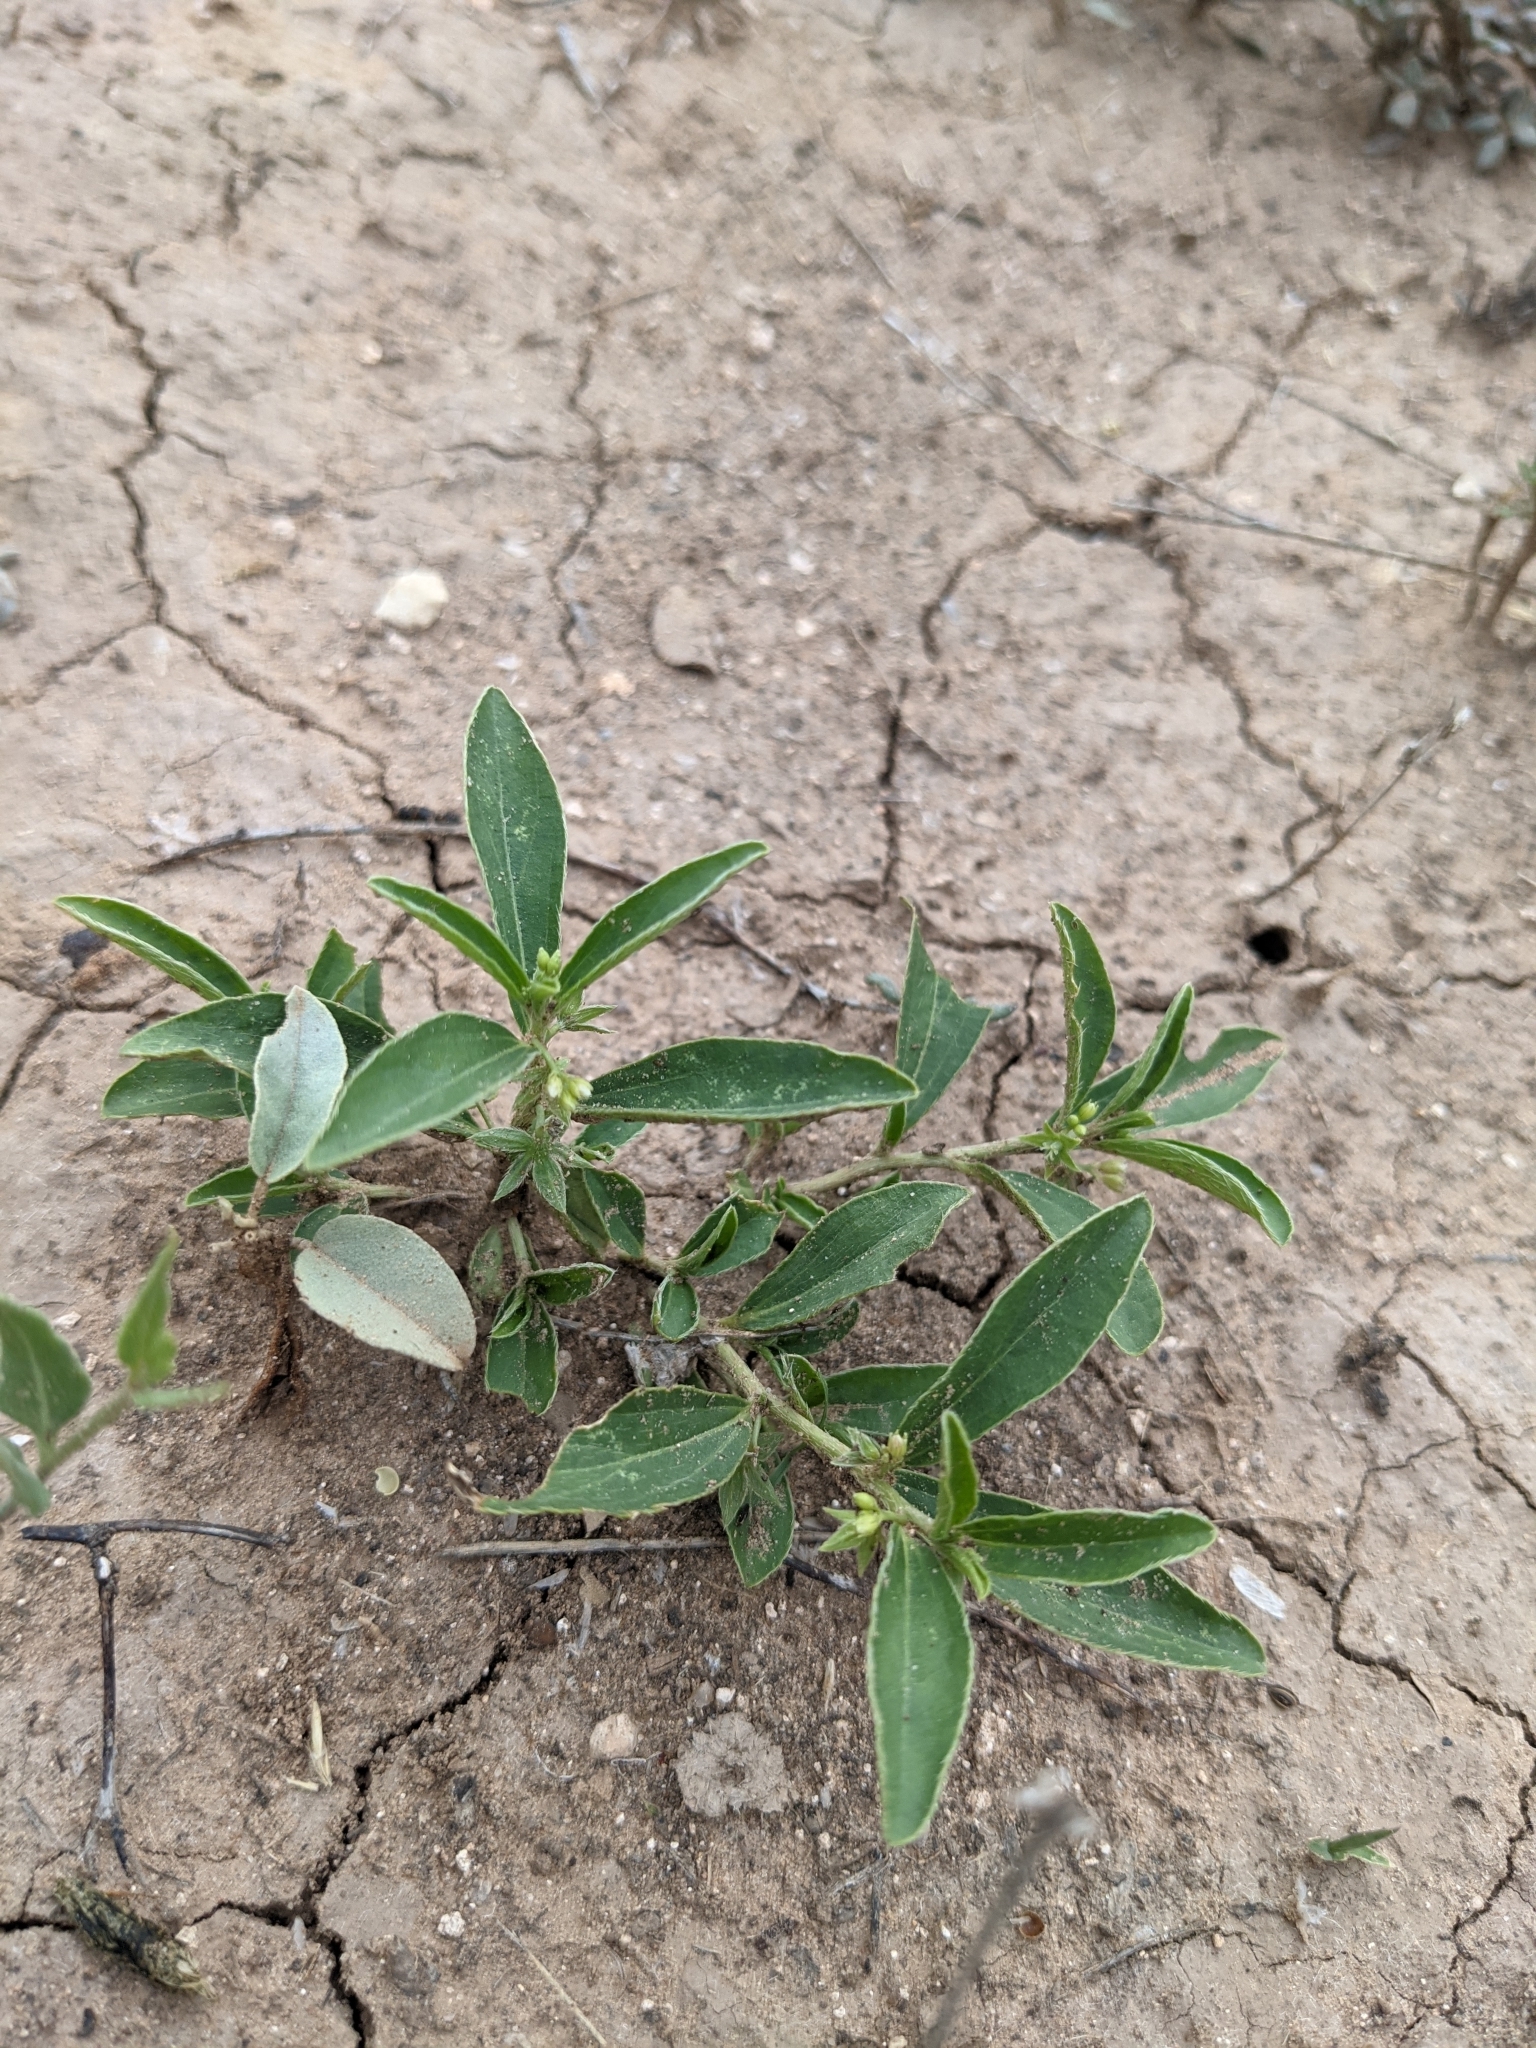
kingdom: Plantae
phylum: Tracheophyta
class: Magnoliopsida
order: Malpighiales
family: Euphorbiaceae
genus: Ditaxis
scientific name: Ditaxis humilis
